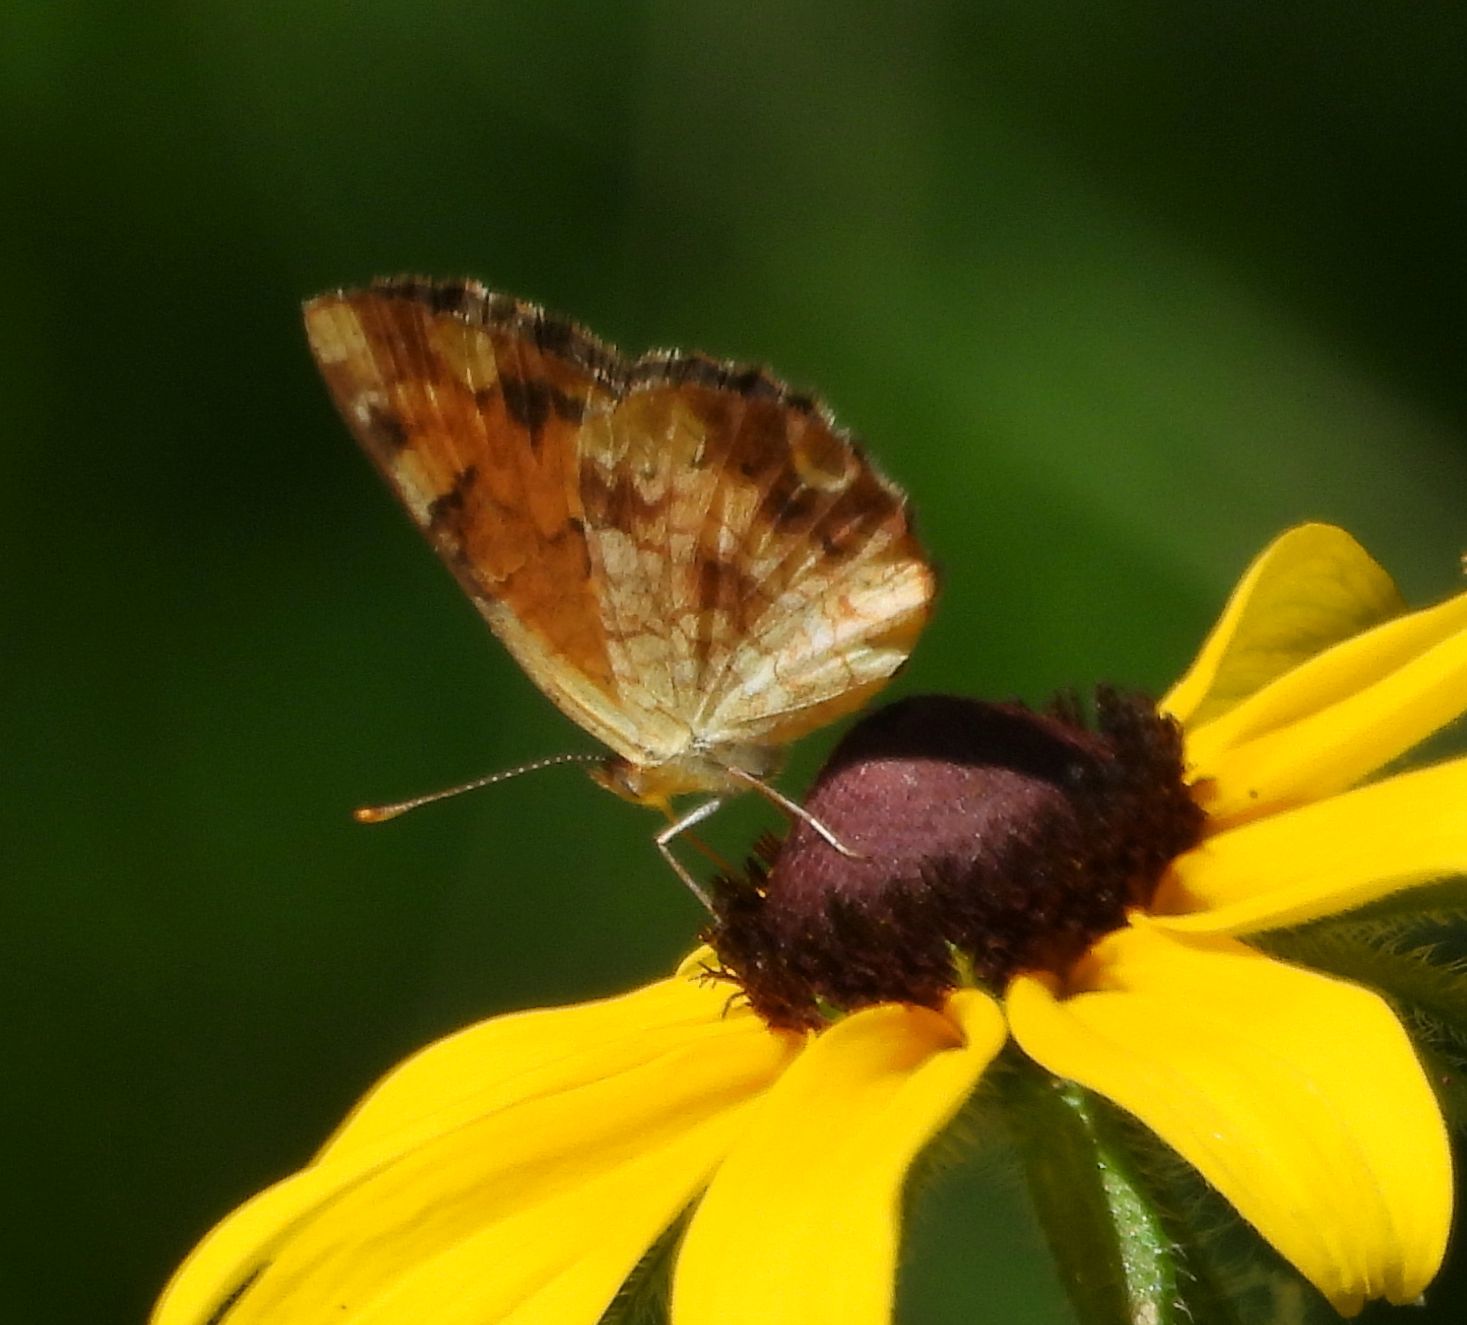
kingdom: Animalia
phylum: Arthropoda
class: Insecta
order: Lepidoptera
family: Nymphalidae
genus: Phyciodes
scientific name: Phyciodes tharos
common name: Pearl crescent
